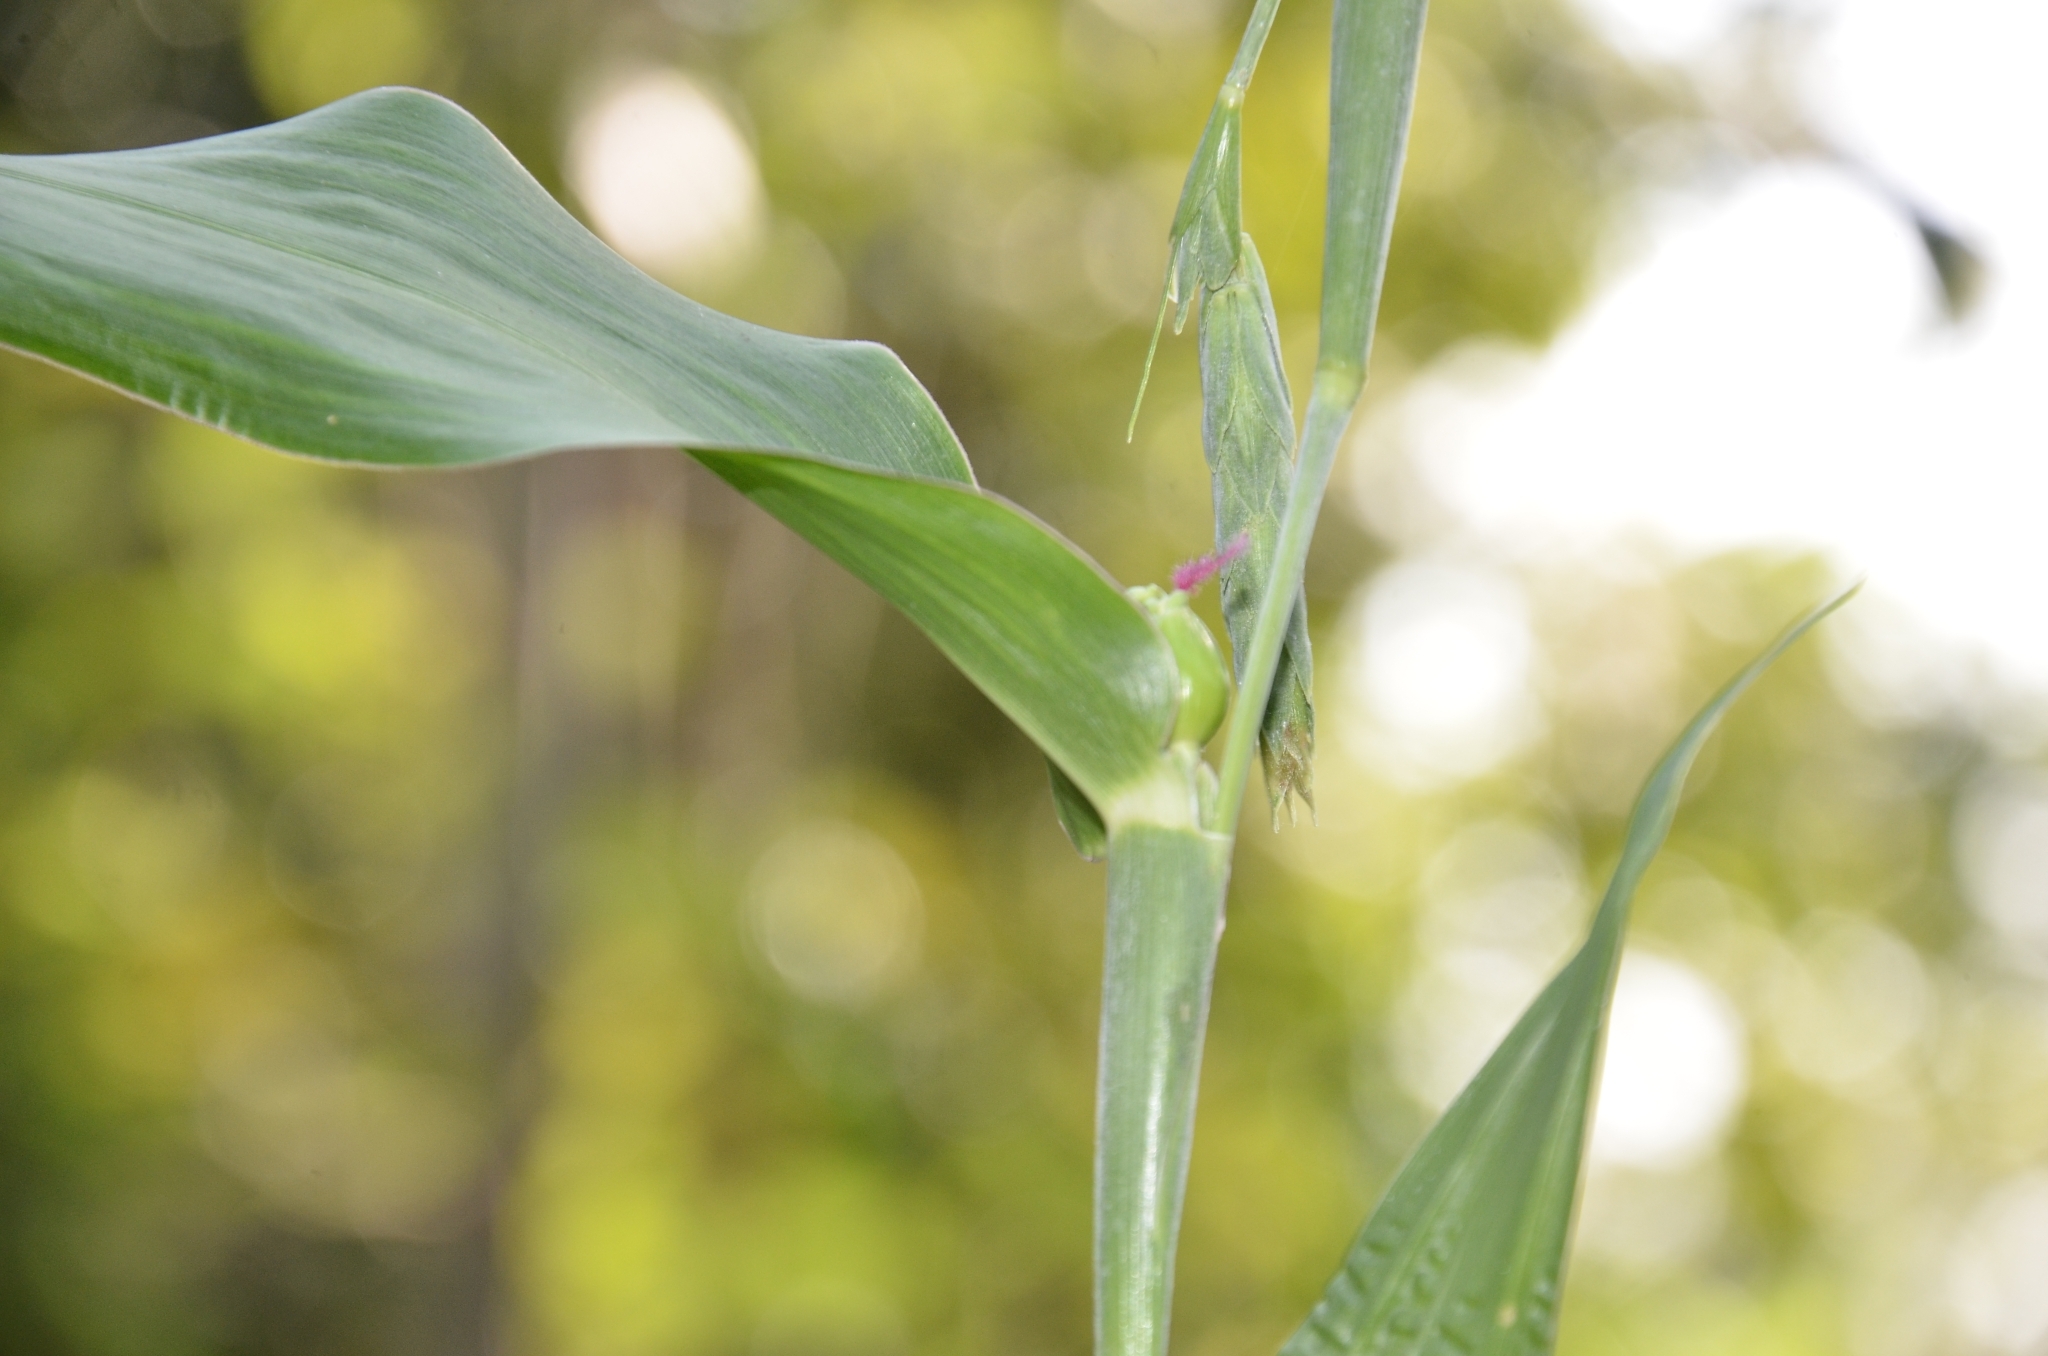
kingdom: Plantae
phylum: Tracheophyta
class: Liliopsida
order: Poales
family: Poaceae
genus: Coix
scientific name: Coix lacryma-jobi
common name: Job's tears
